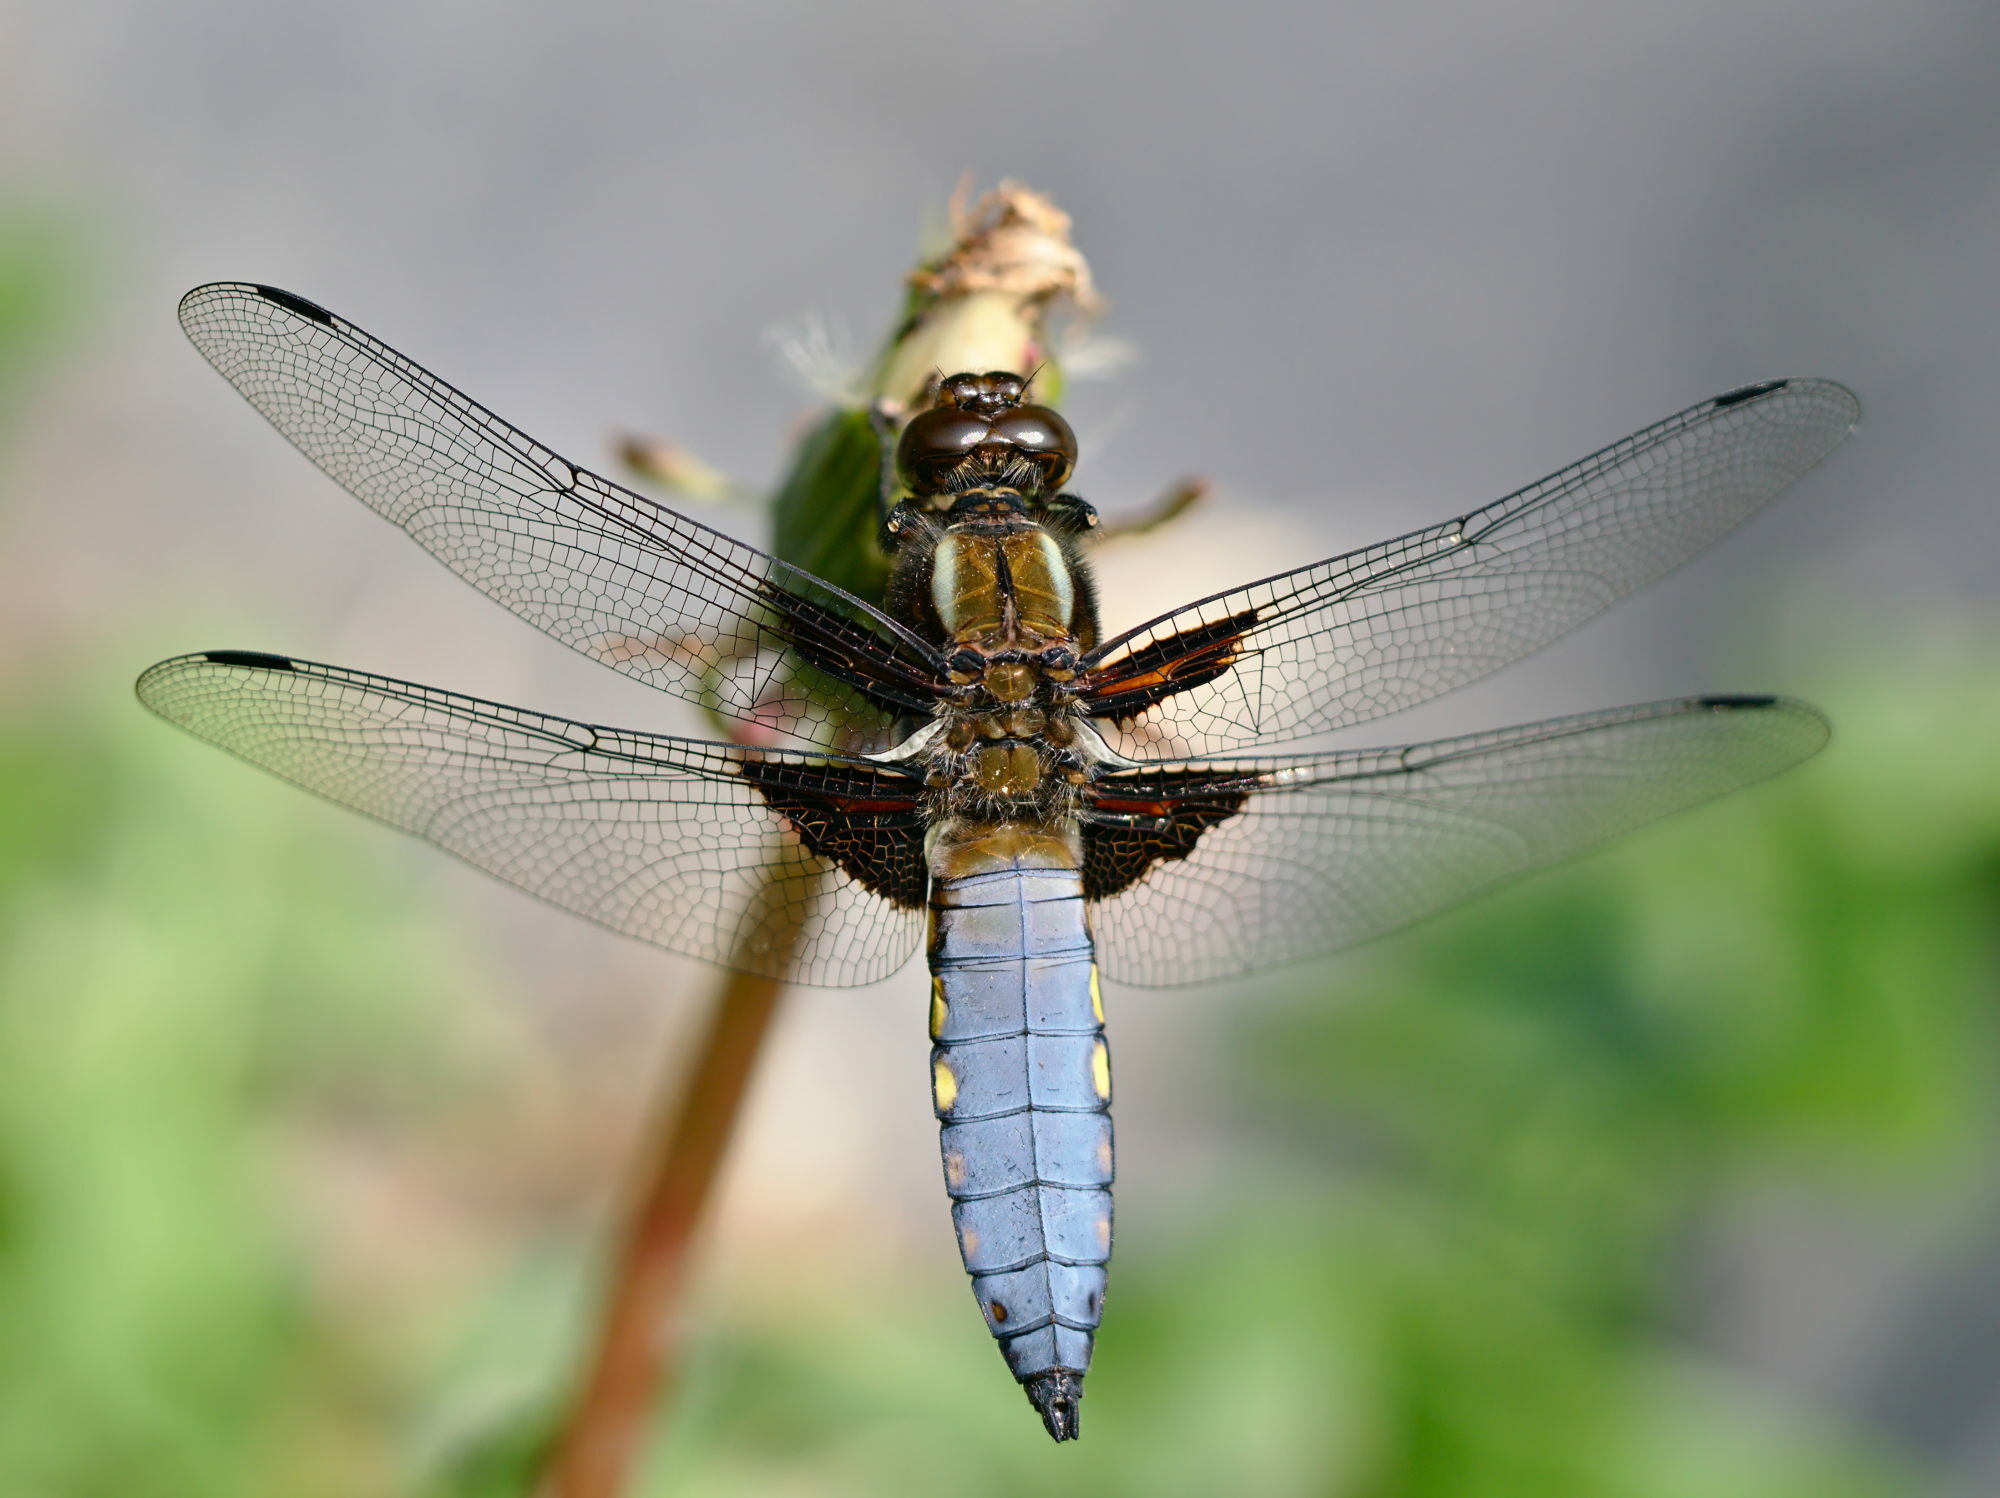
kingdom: Animalia
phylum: Arthropoda
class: Insecta
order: Odonata
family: Libellulidae
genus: Libellula
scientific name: Libellula depressa
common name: Broad-bodied chaser
